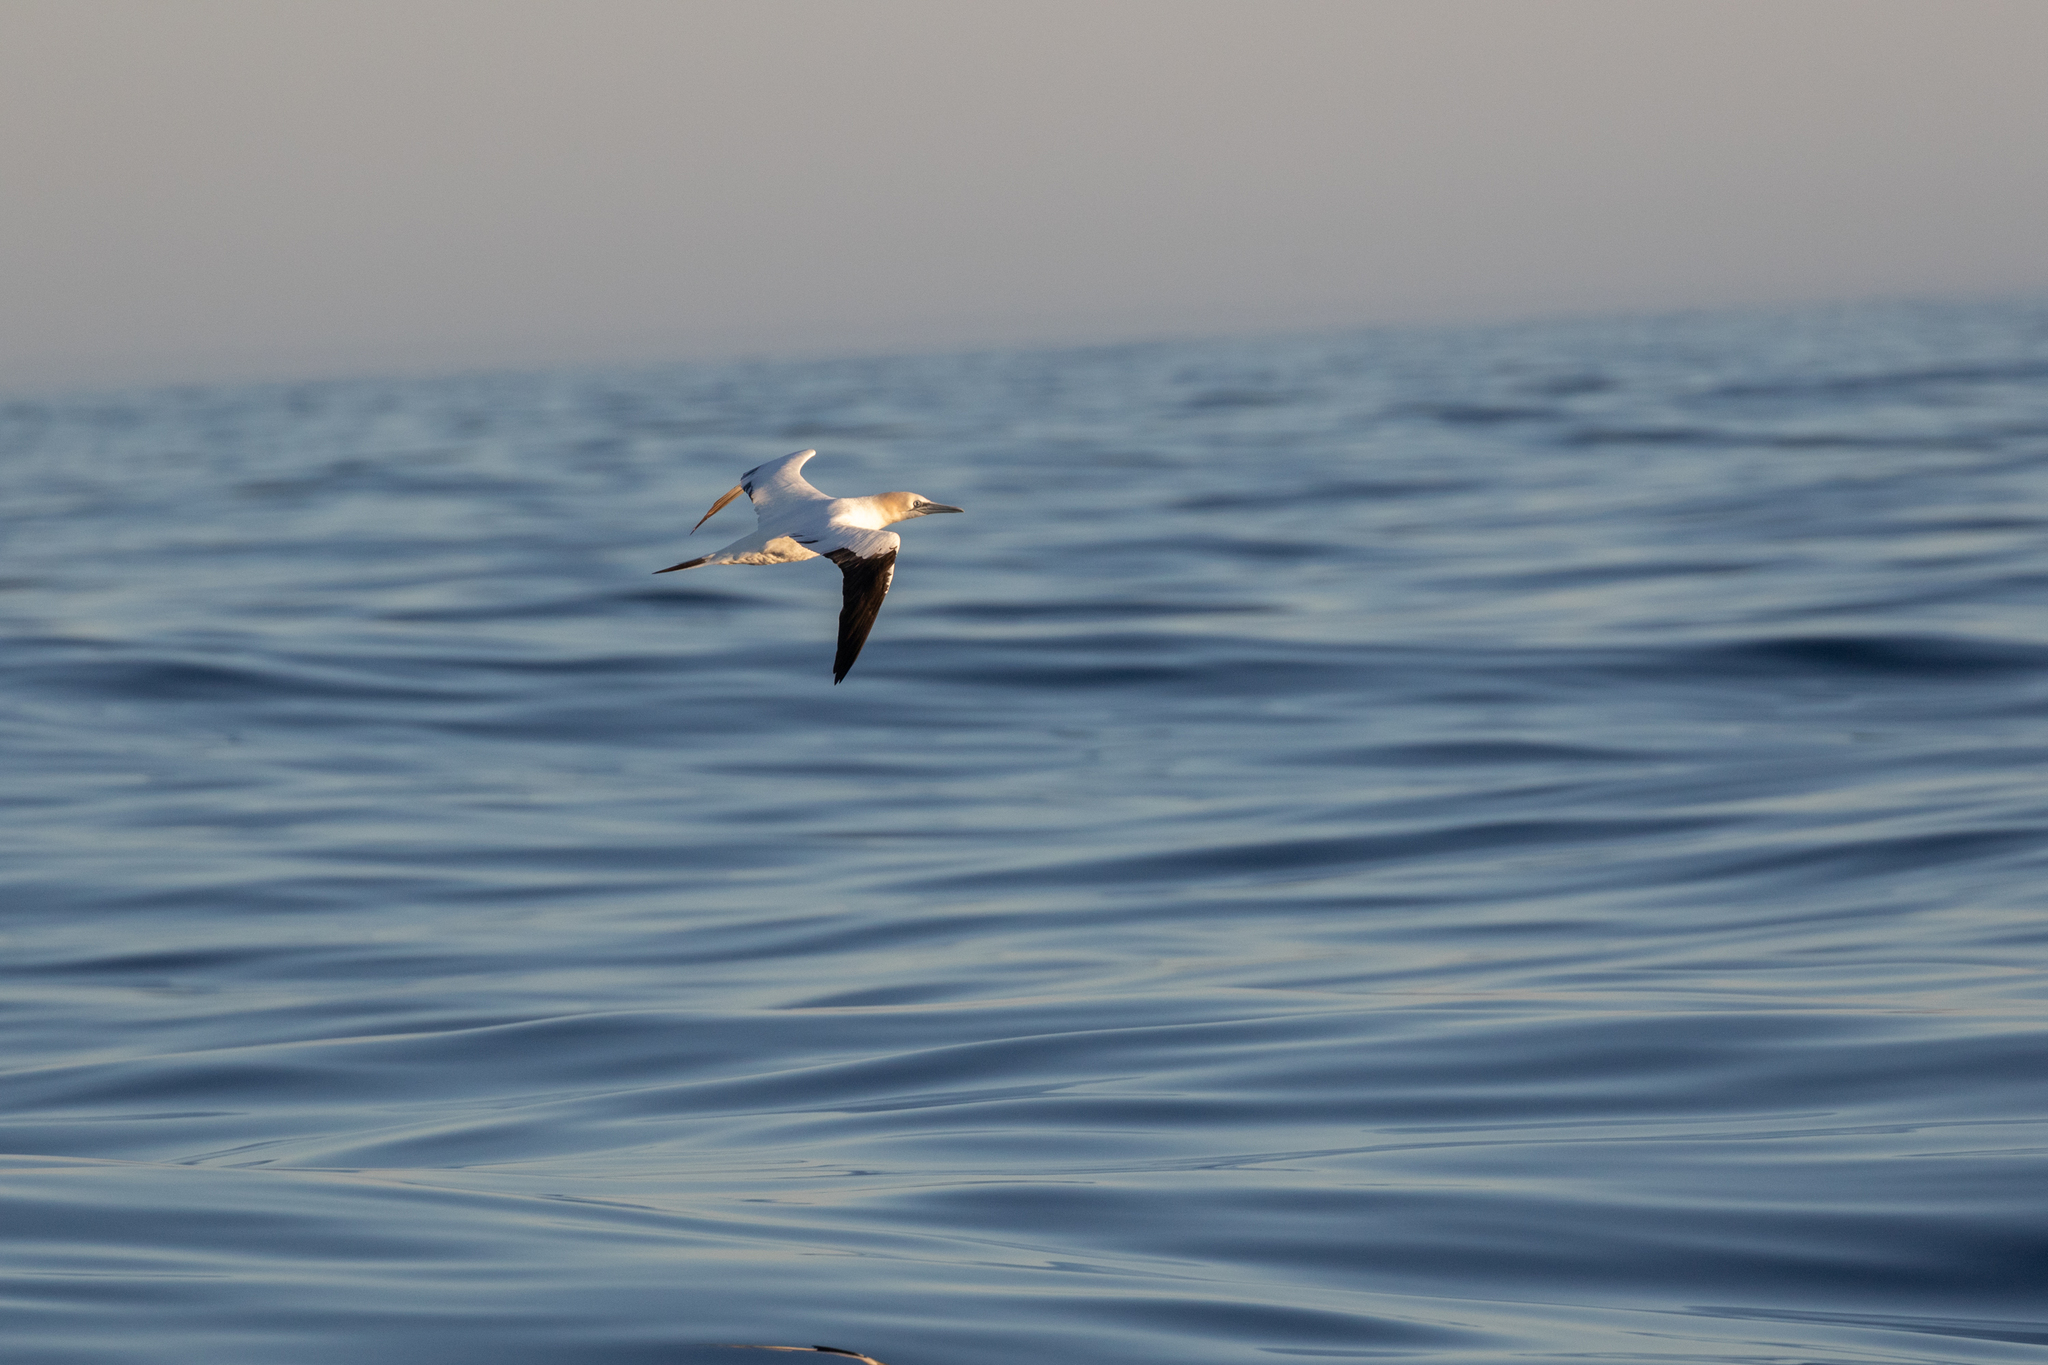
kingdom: Animalia
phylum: Chordata
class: Aves
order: Suliformes
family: Sulidae
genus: Morus
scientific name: Morus bassanus
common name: Northern gannet
